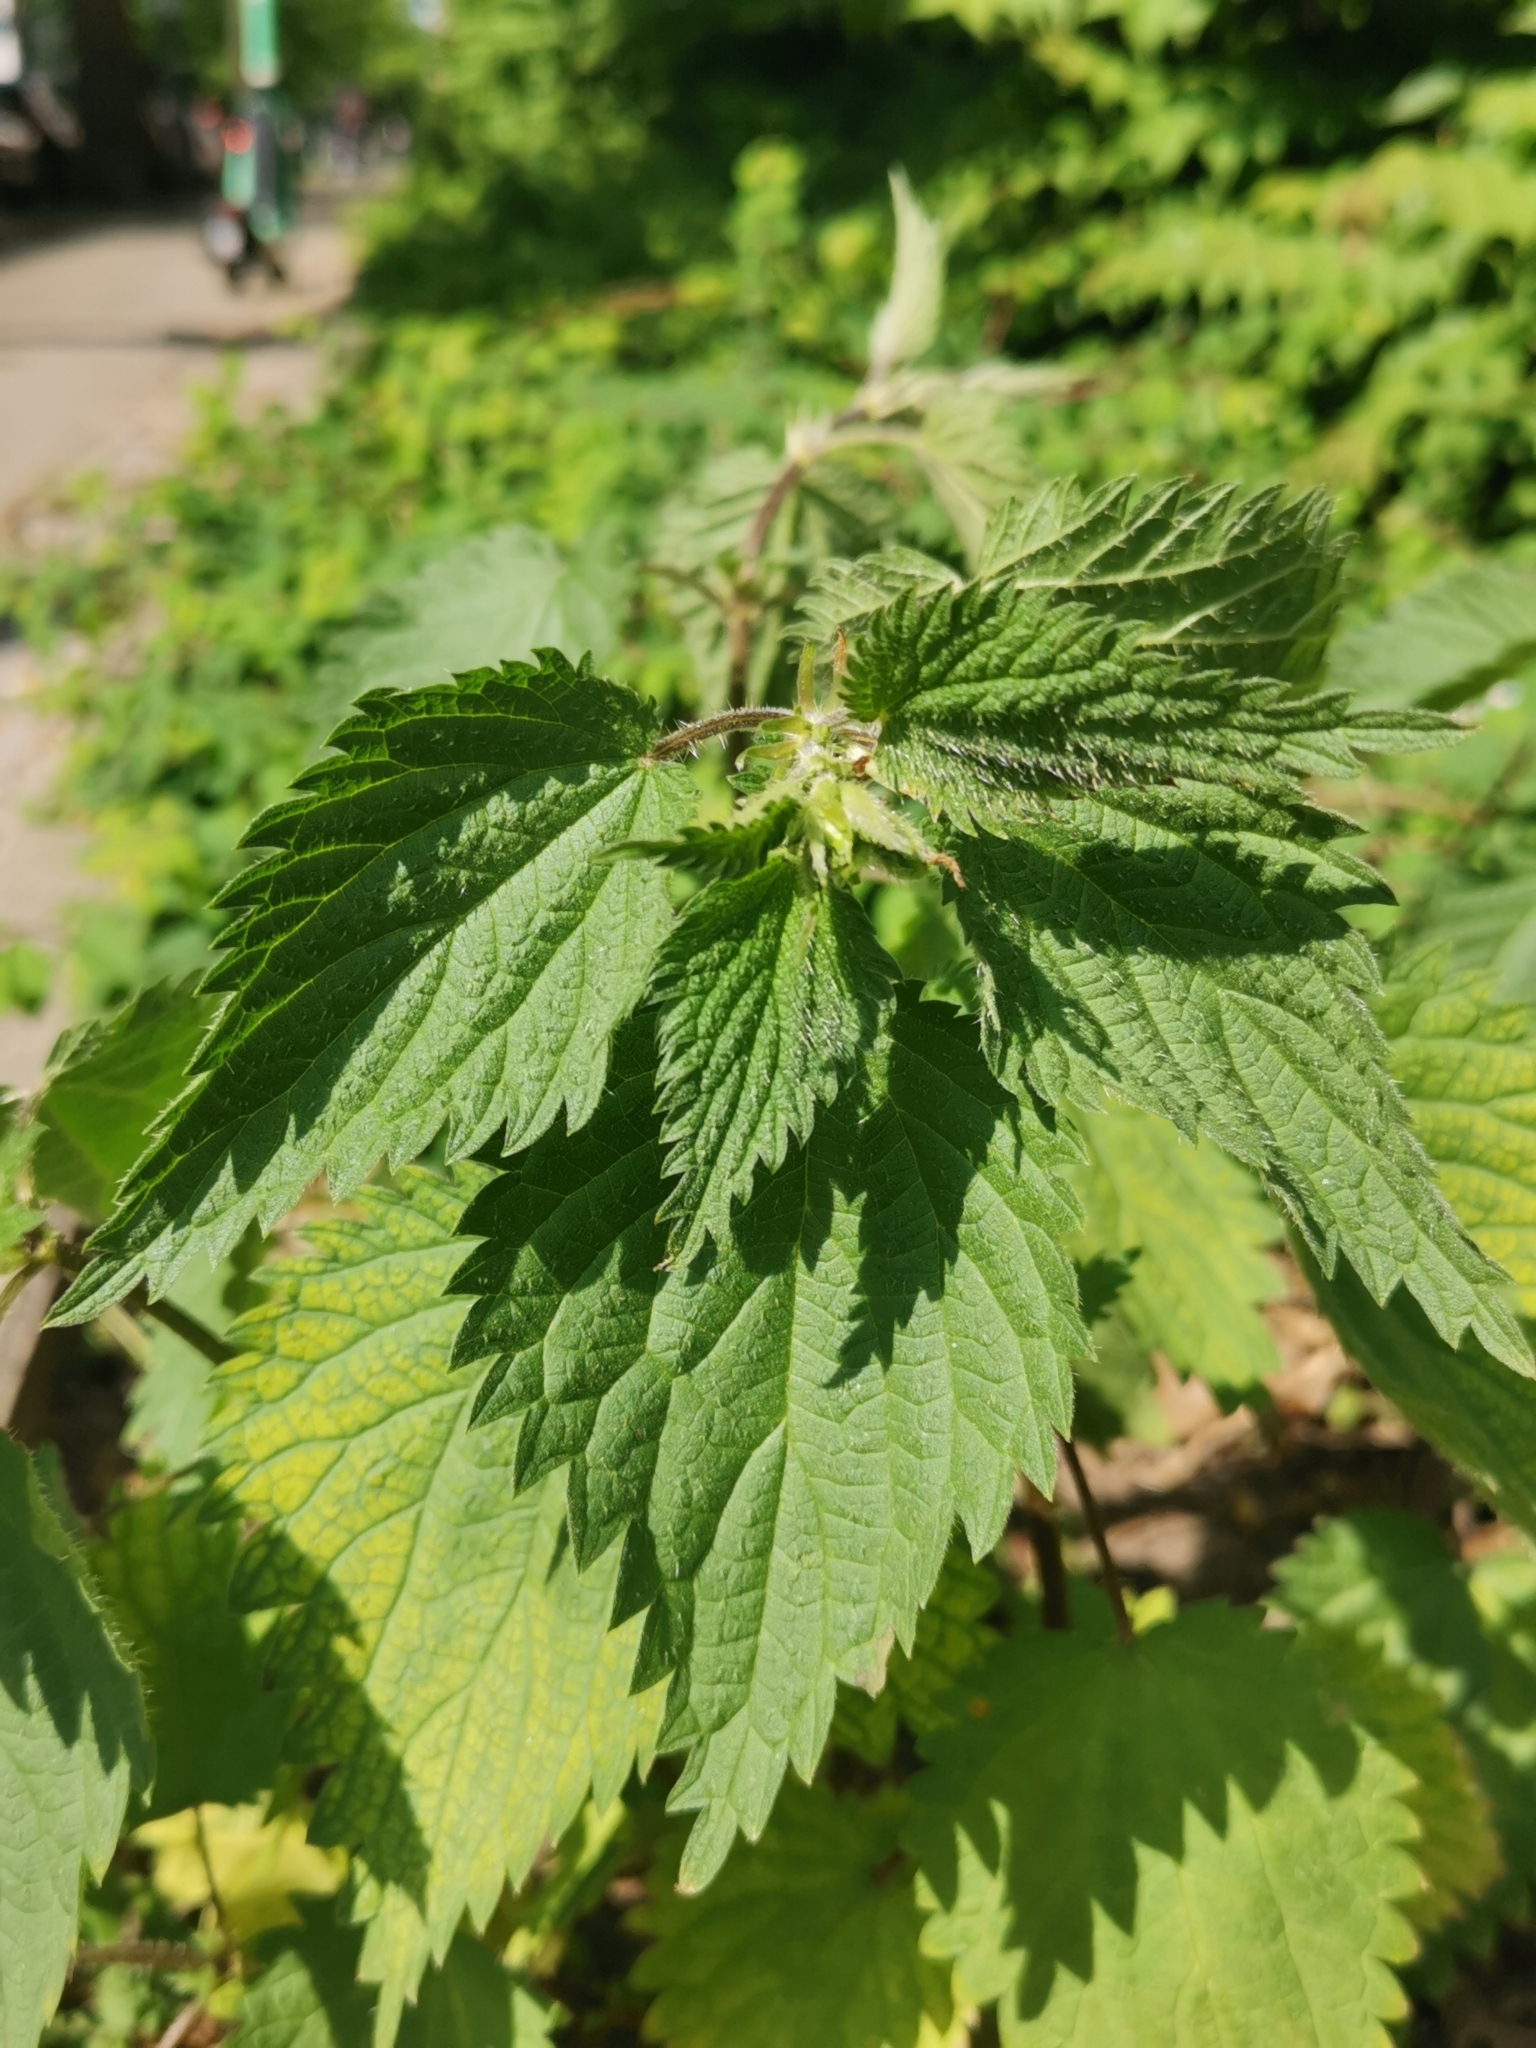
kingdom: Plantae
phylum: Tracheophyta
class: Magnoliopsida
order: Rosales
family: Urticaceae
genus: Urtica
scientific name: Urtica dioica
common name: Common nettle
